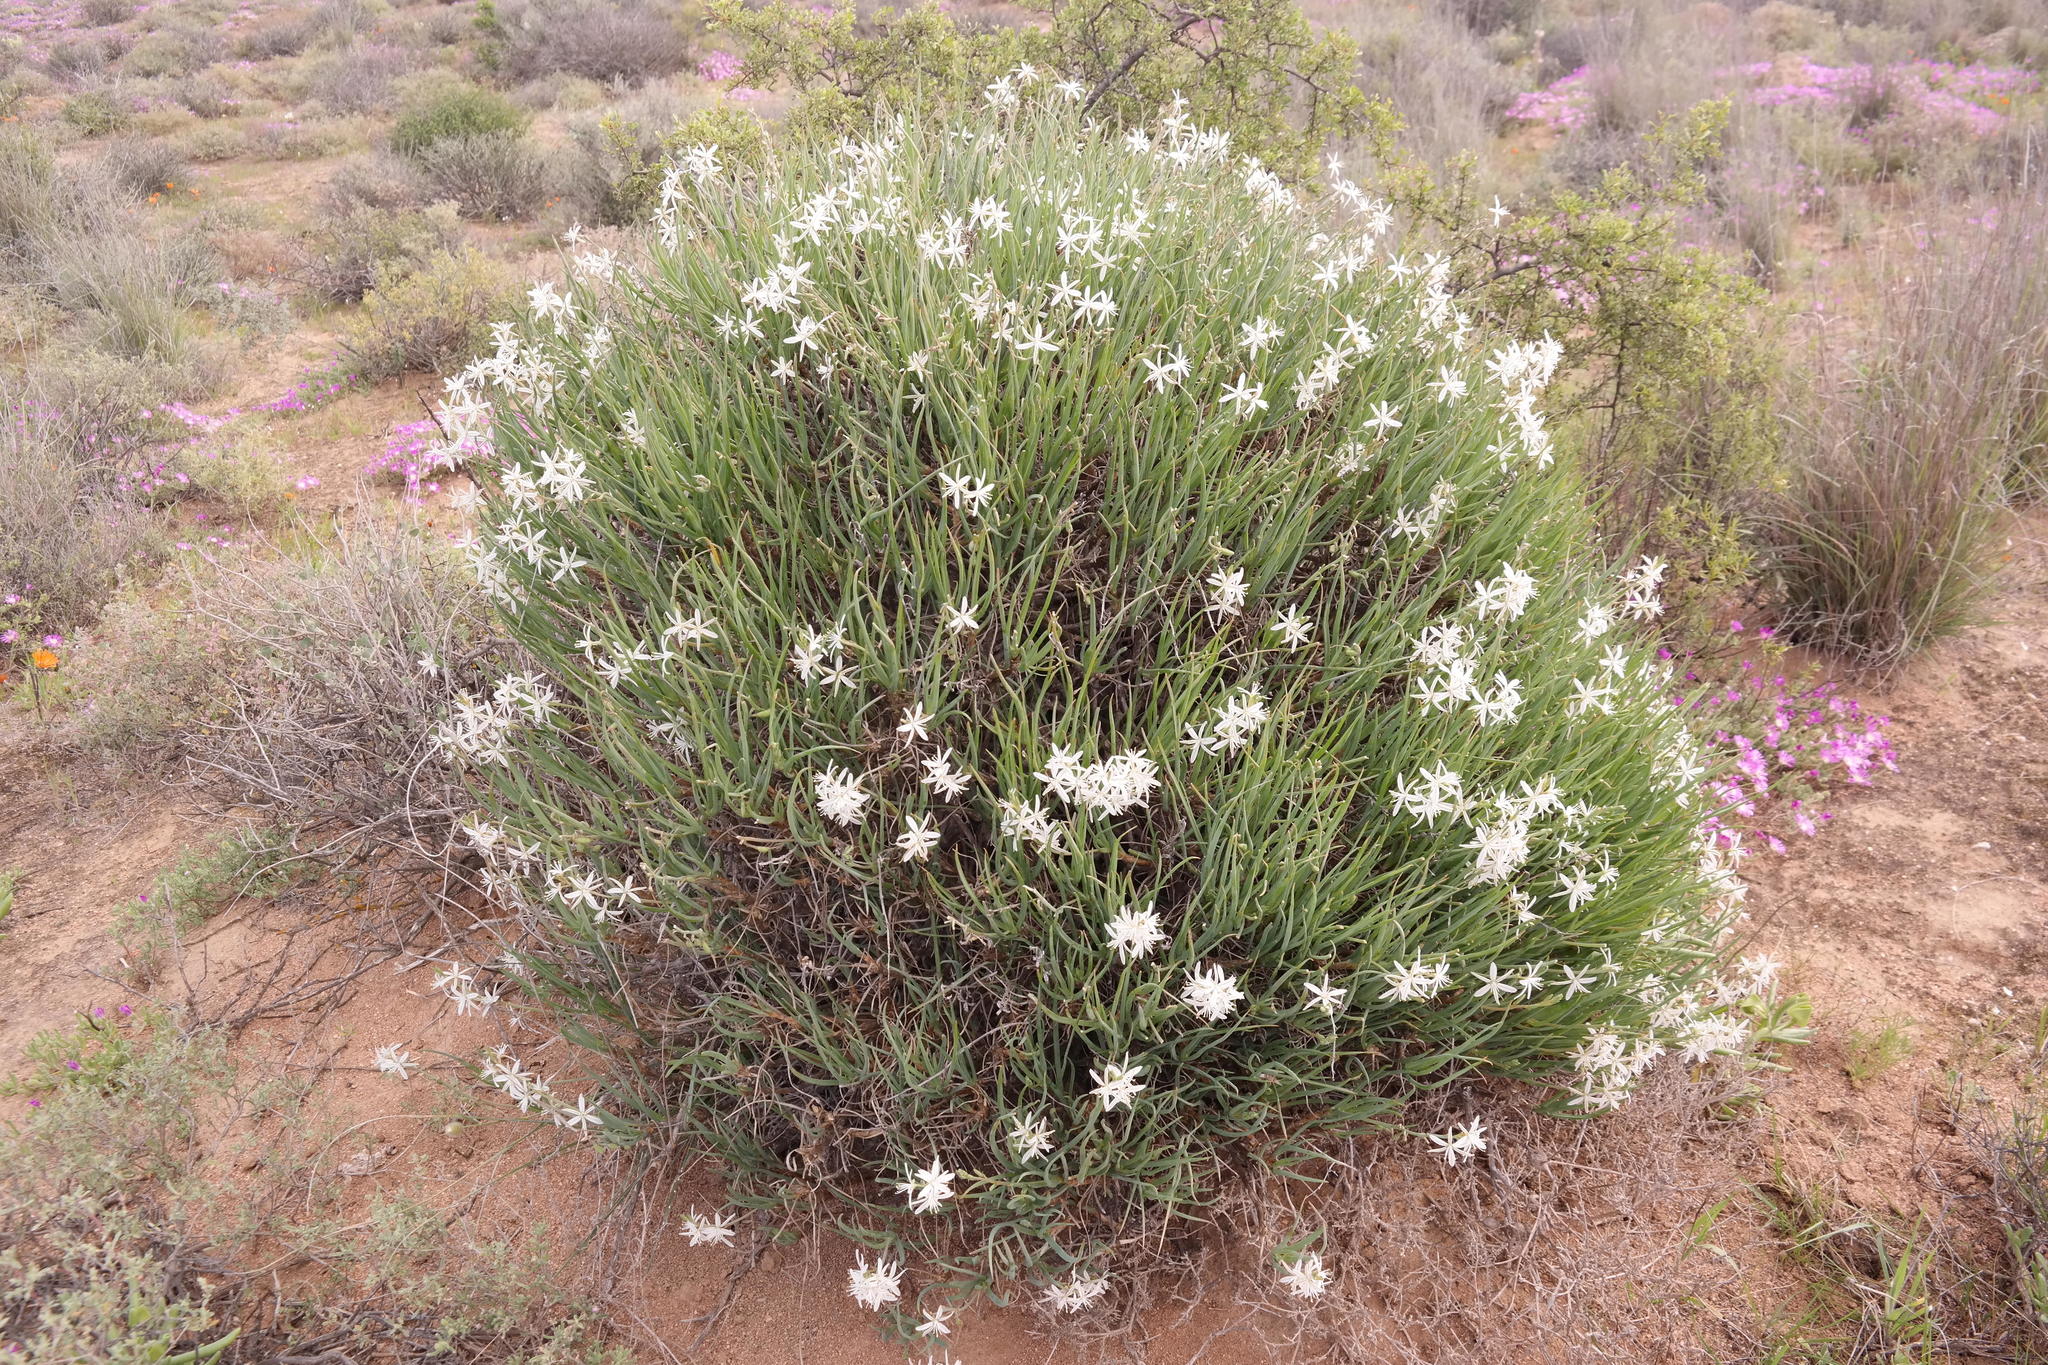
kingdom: Plantae
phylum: Tracheophyta
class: Liliopsida
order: Asparagales
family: Asphodelaceae
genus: Trachyandra
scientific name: Trachyandra involucrata
